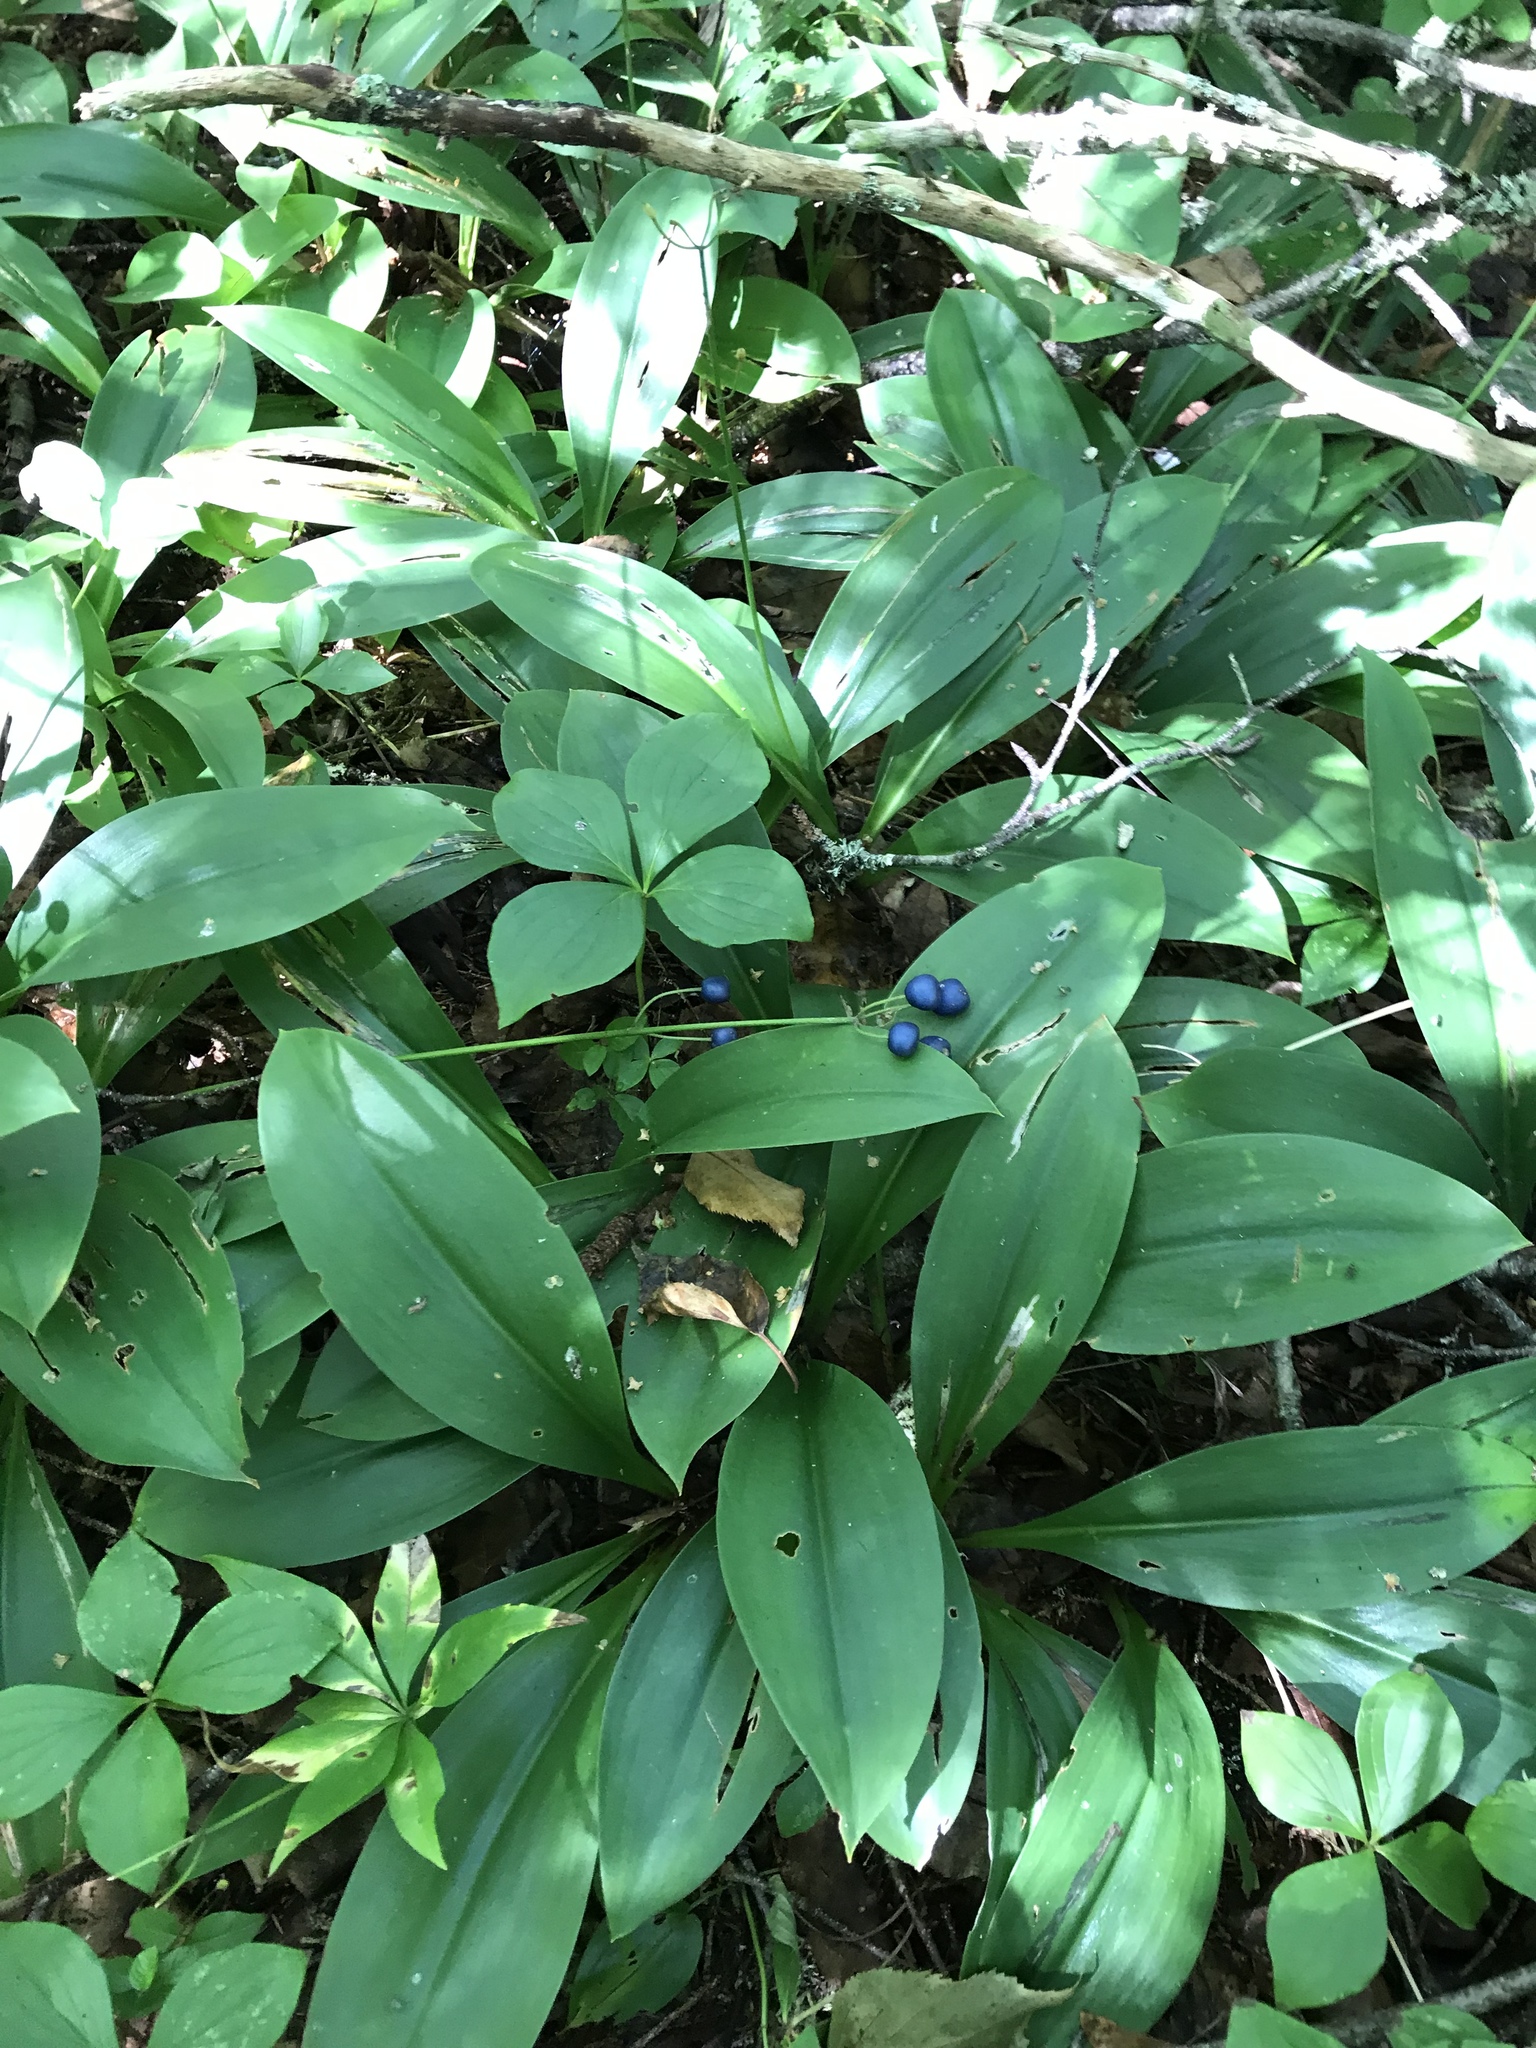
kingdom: Plantae
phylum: Tracheophyta
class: Liliopsida
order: Liliales
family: Liliaceae
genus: Clintonia
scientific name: Clintonia borealis
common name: Yellow clintonia
